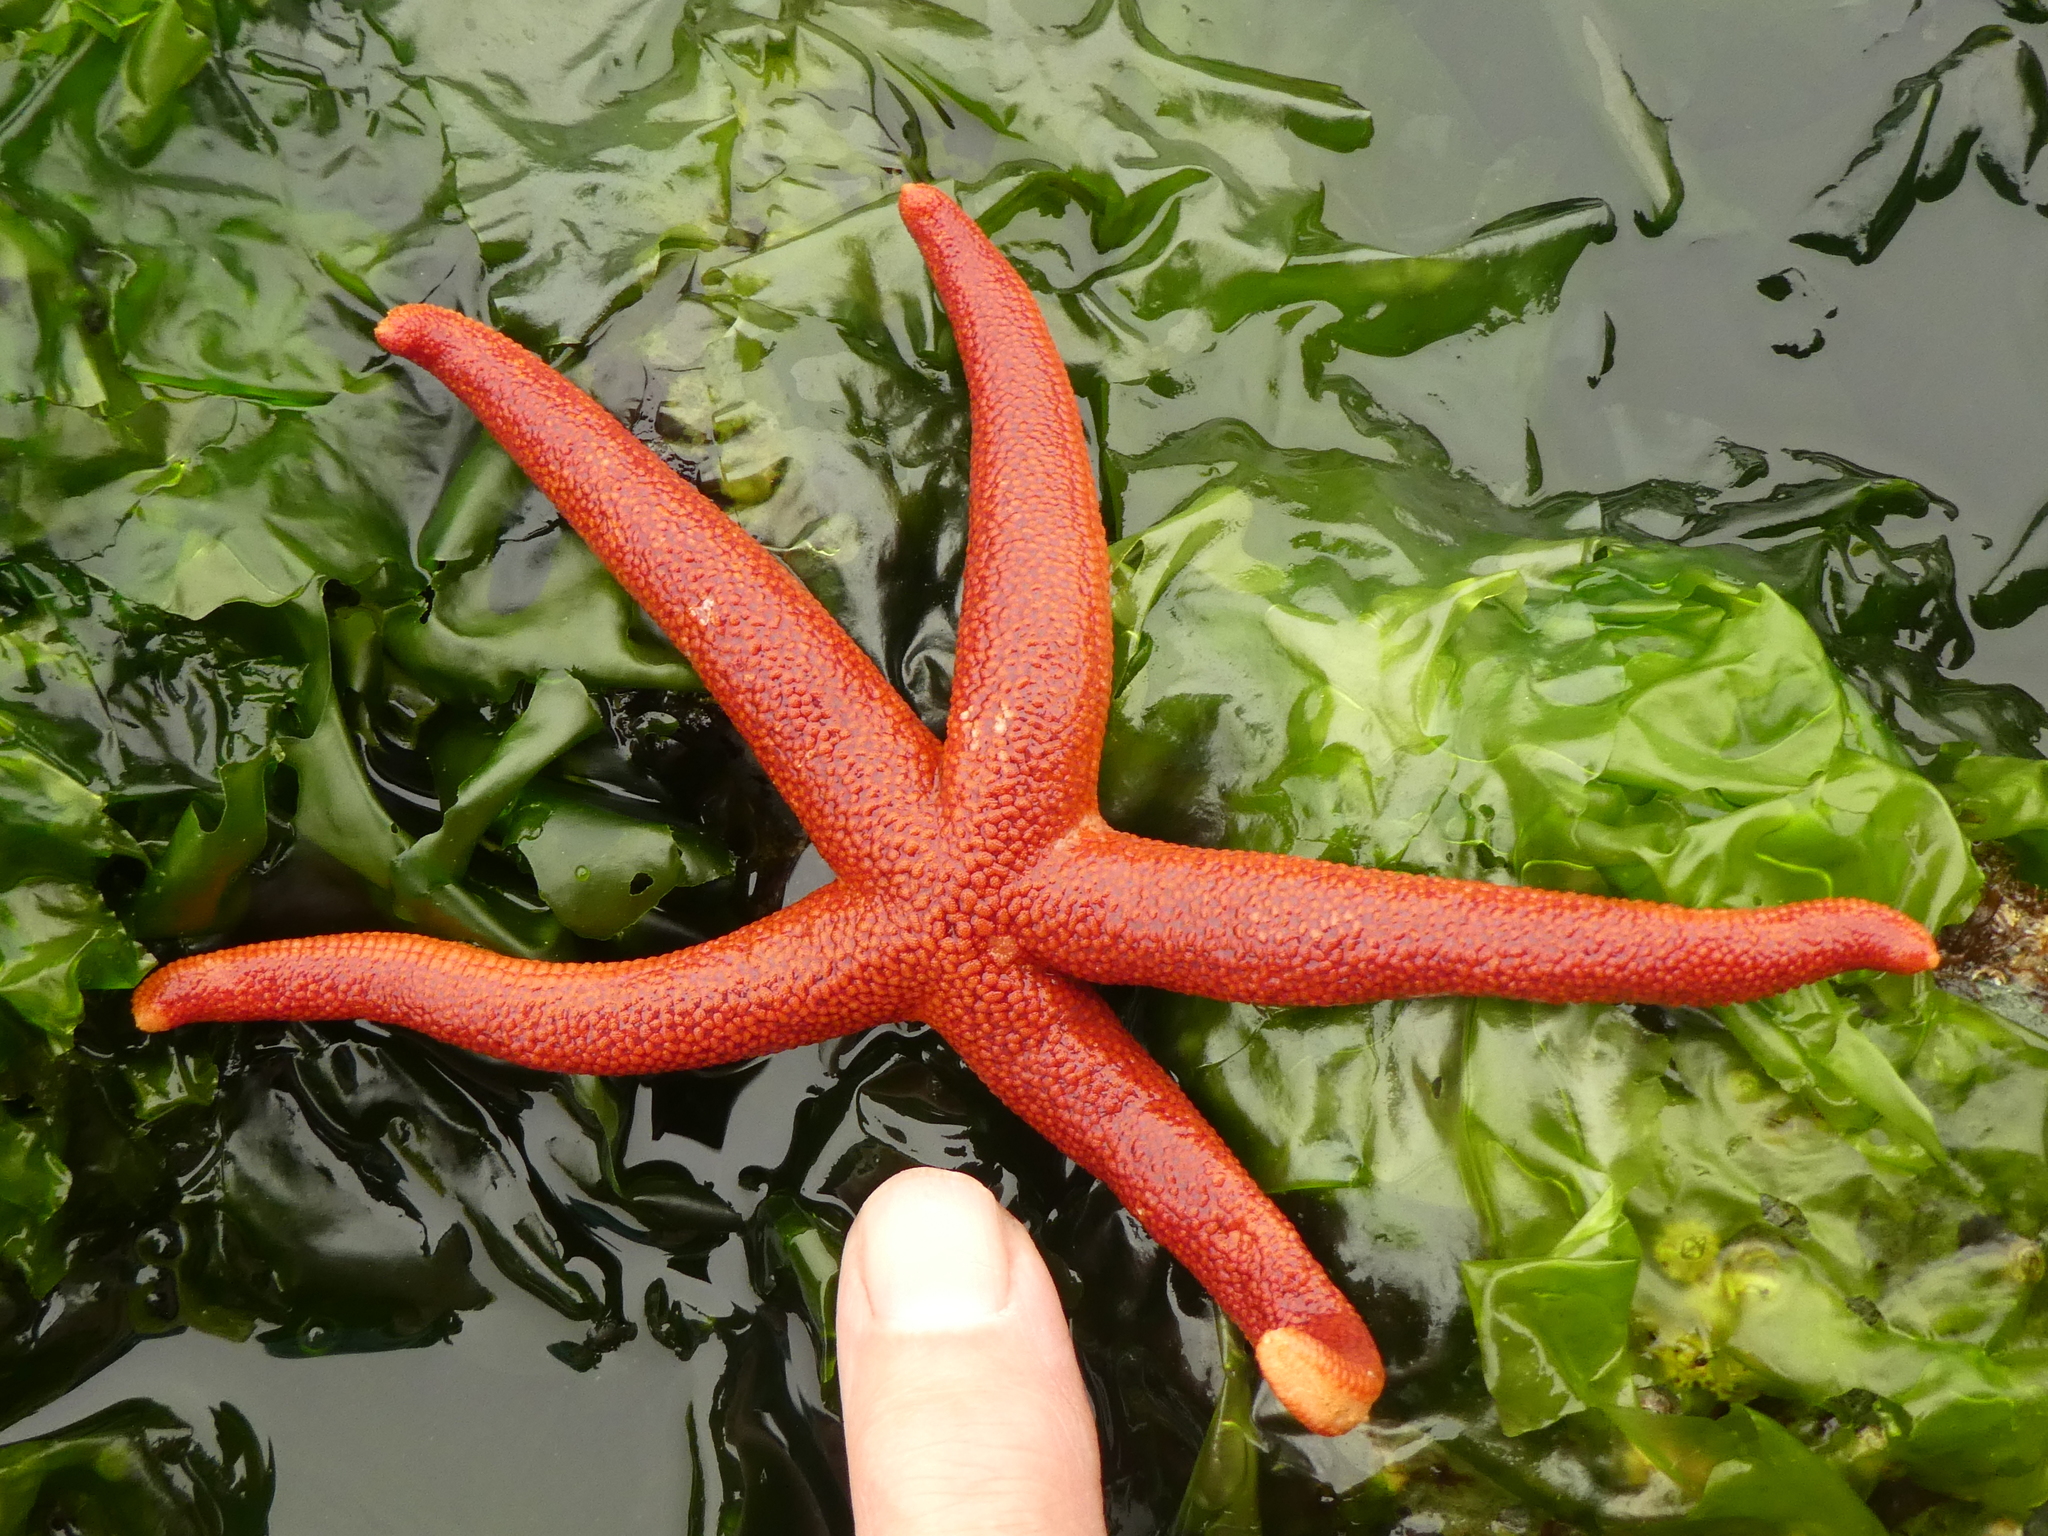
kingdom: Animalia
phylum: Echinodermata
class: Asteroidea
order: Spinulosida
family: Echinasteridae
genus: Henricia
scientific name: Henricia leviuscula
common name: Pacific blood star
